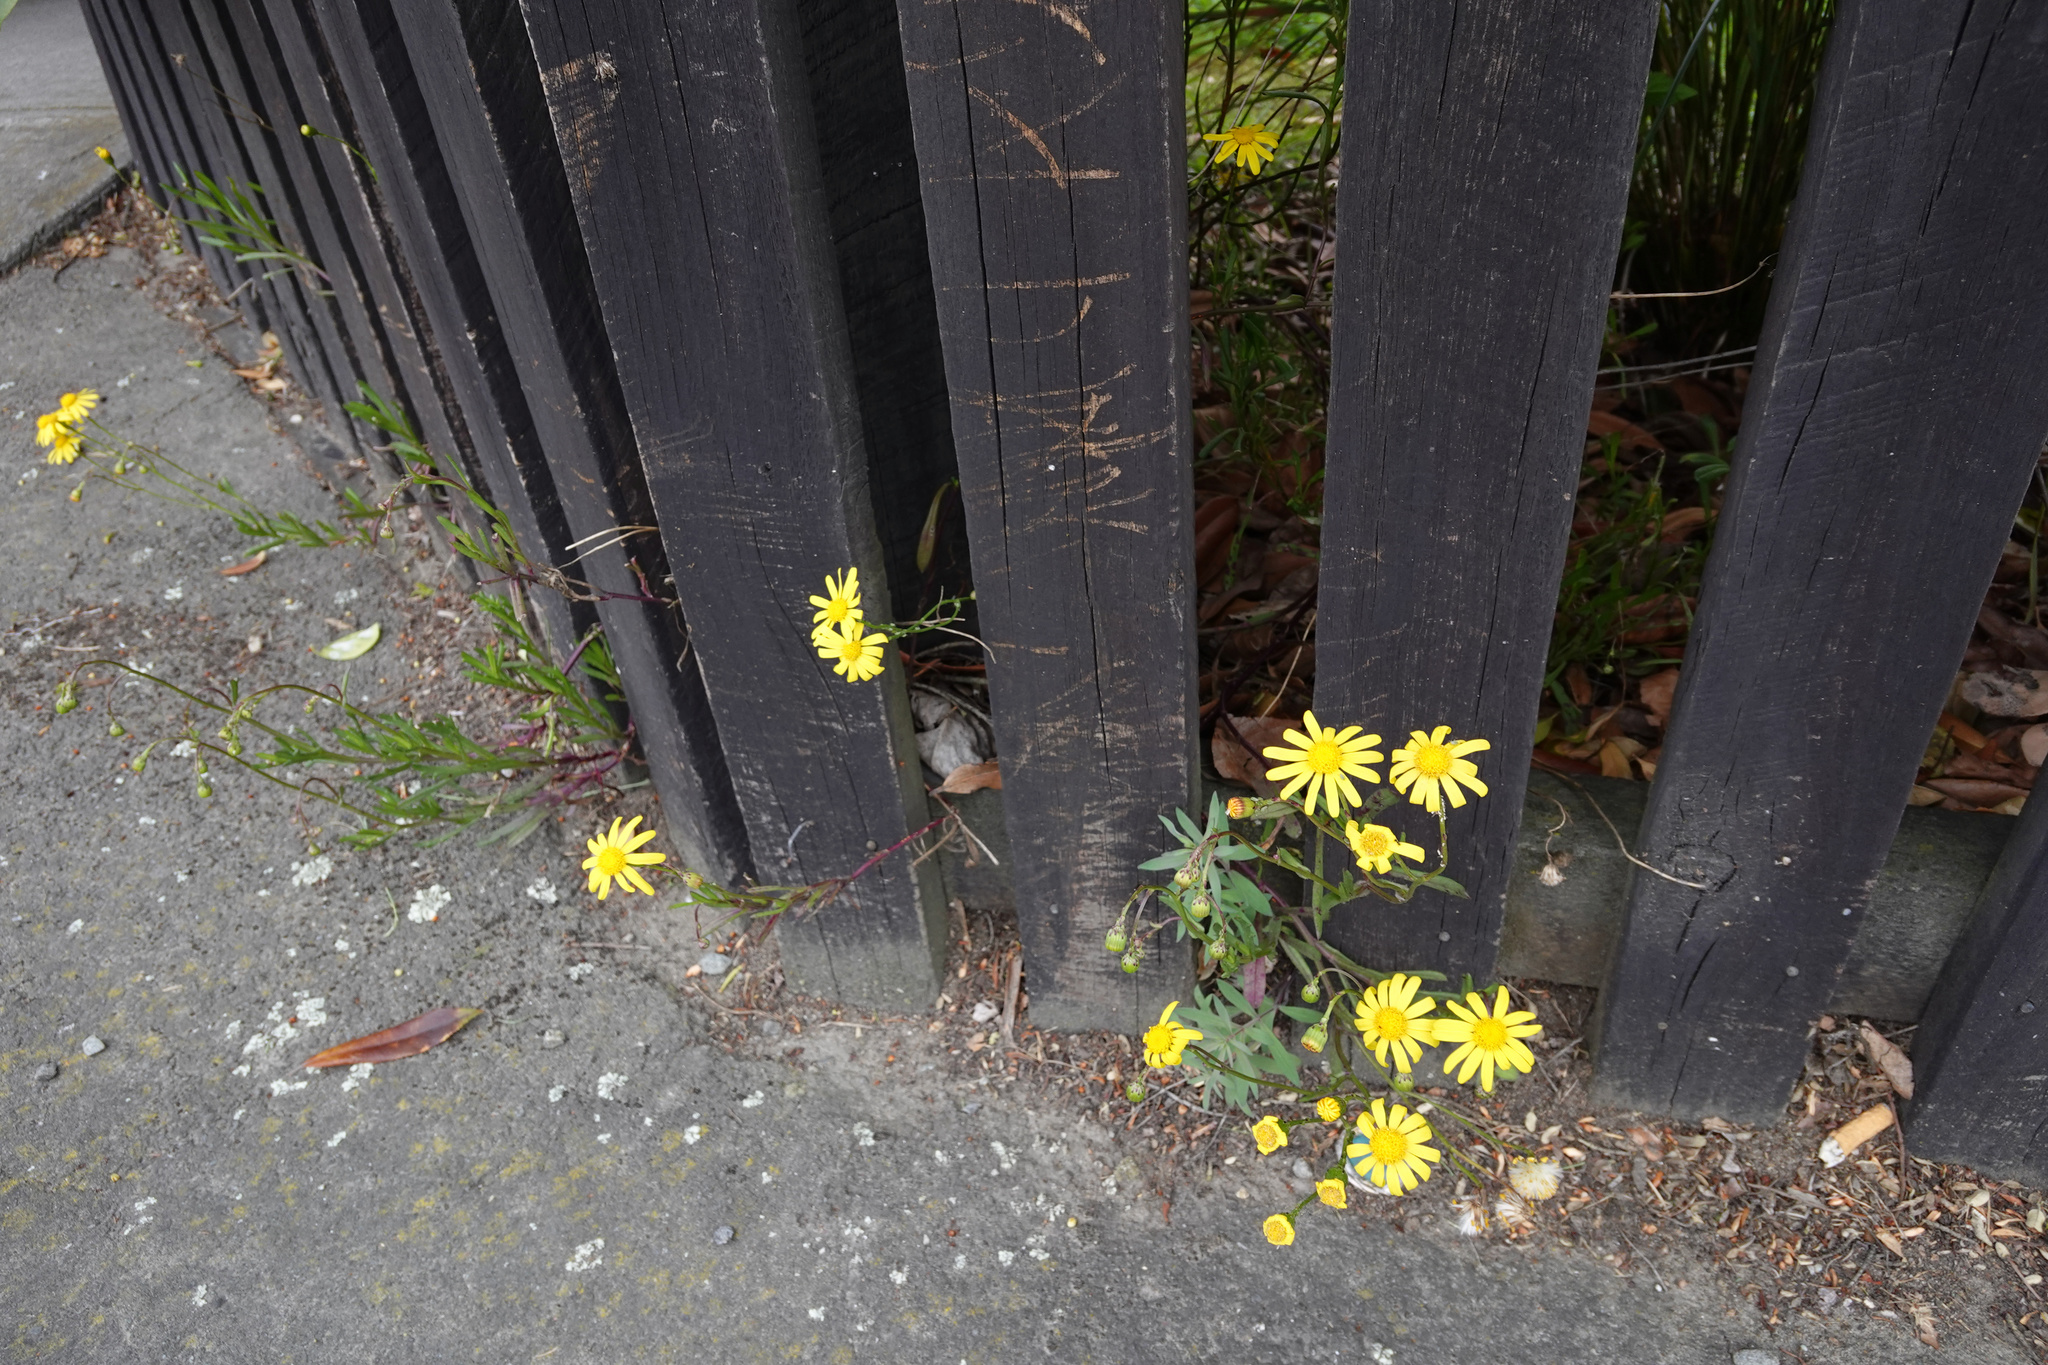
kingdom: Plantae
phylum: Tracheophyta
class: Magnoliopsida
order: Asterales
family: Asteraceae
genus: Senecio
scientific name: Senecio skirrhodon
